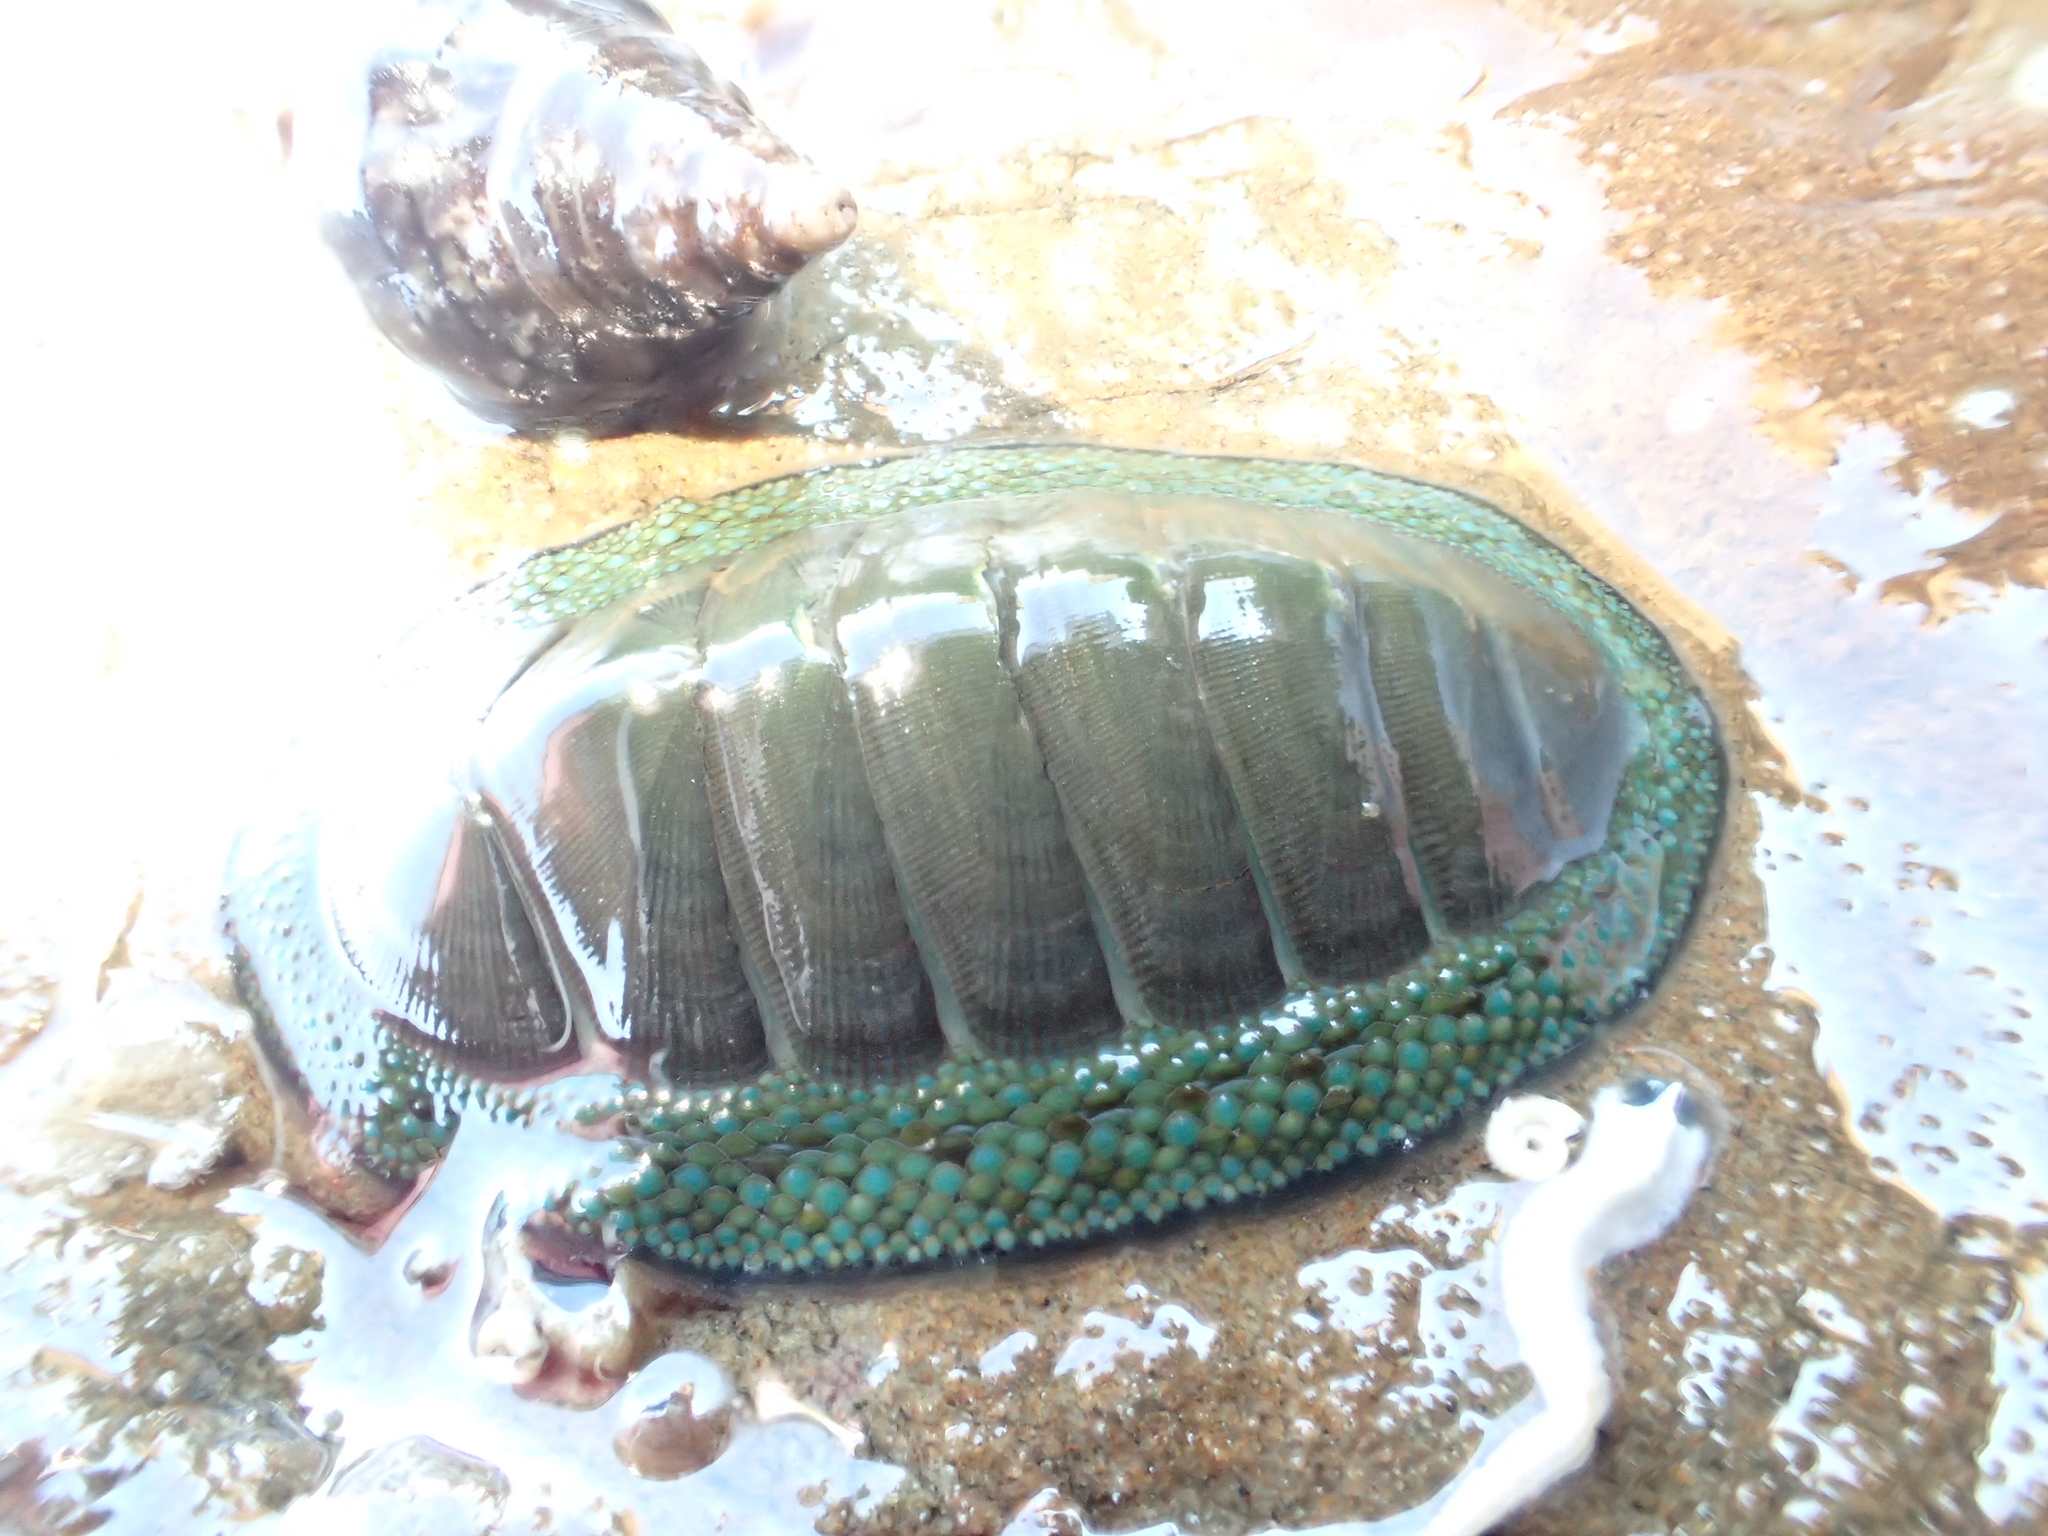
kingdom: Animalia
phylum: Mollusca
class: Polyplacophora
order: Chitonida
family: Chitonidae
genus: Chiton
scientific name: Chiton glaucus
